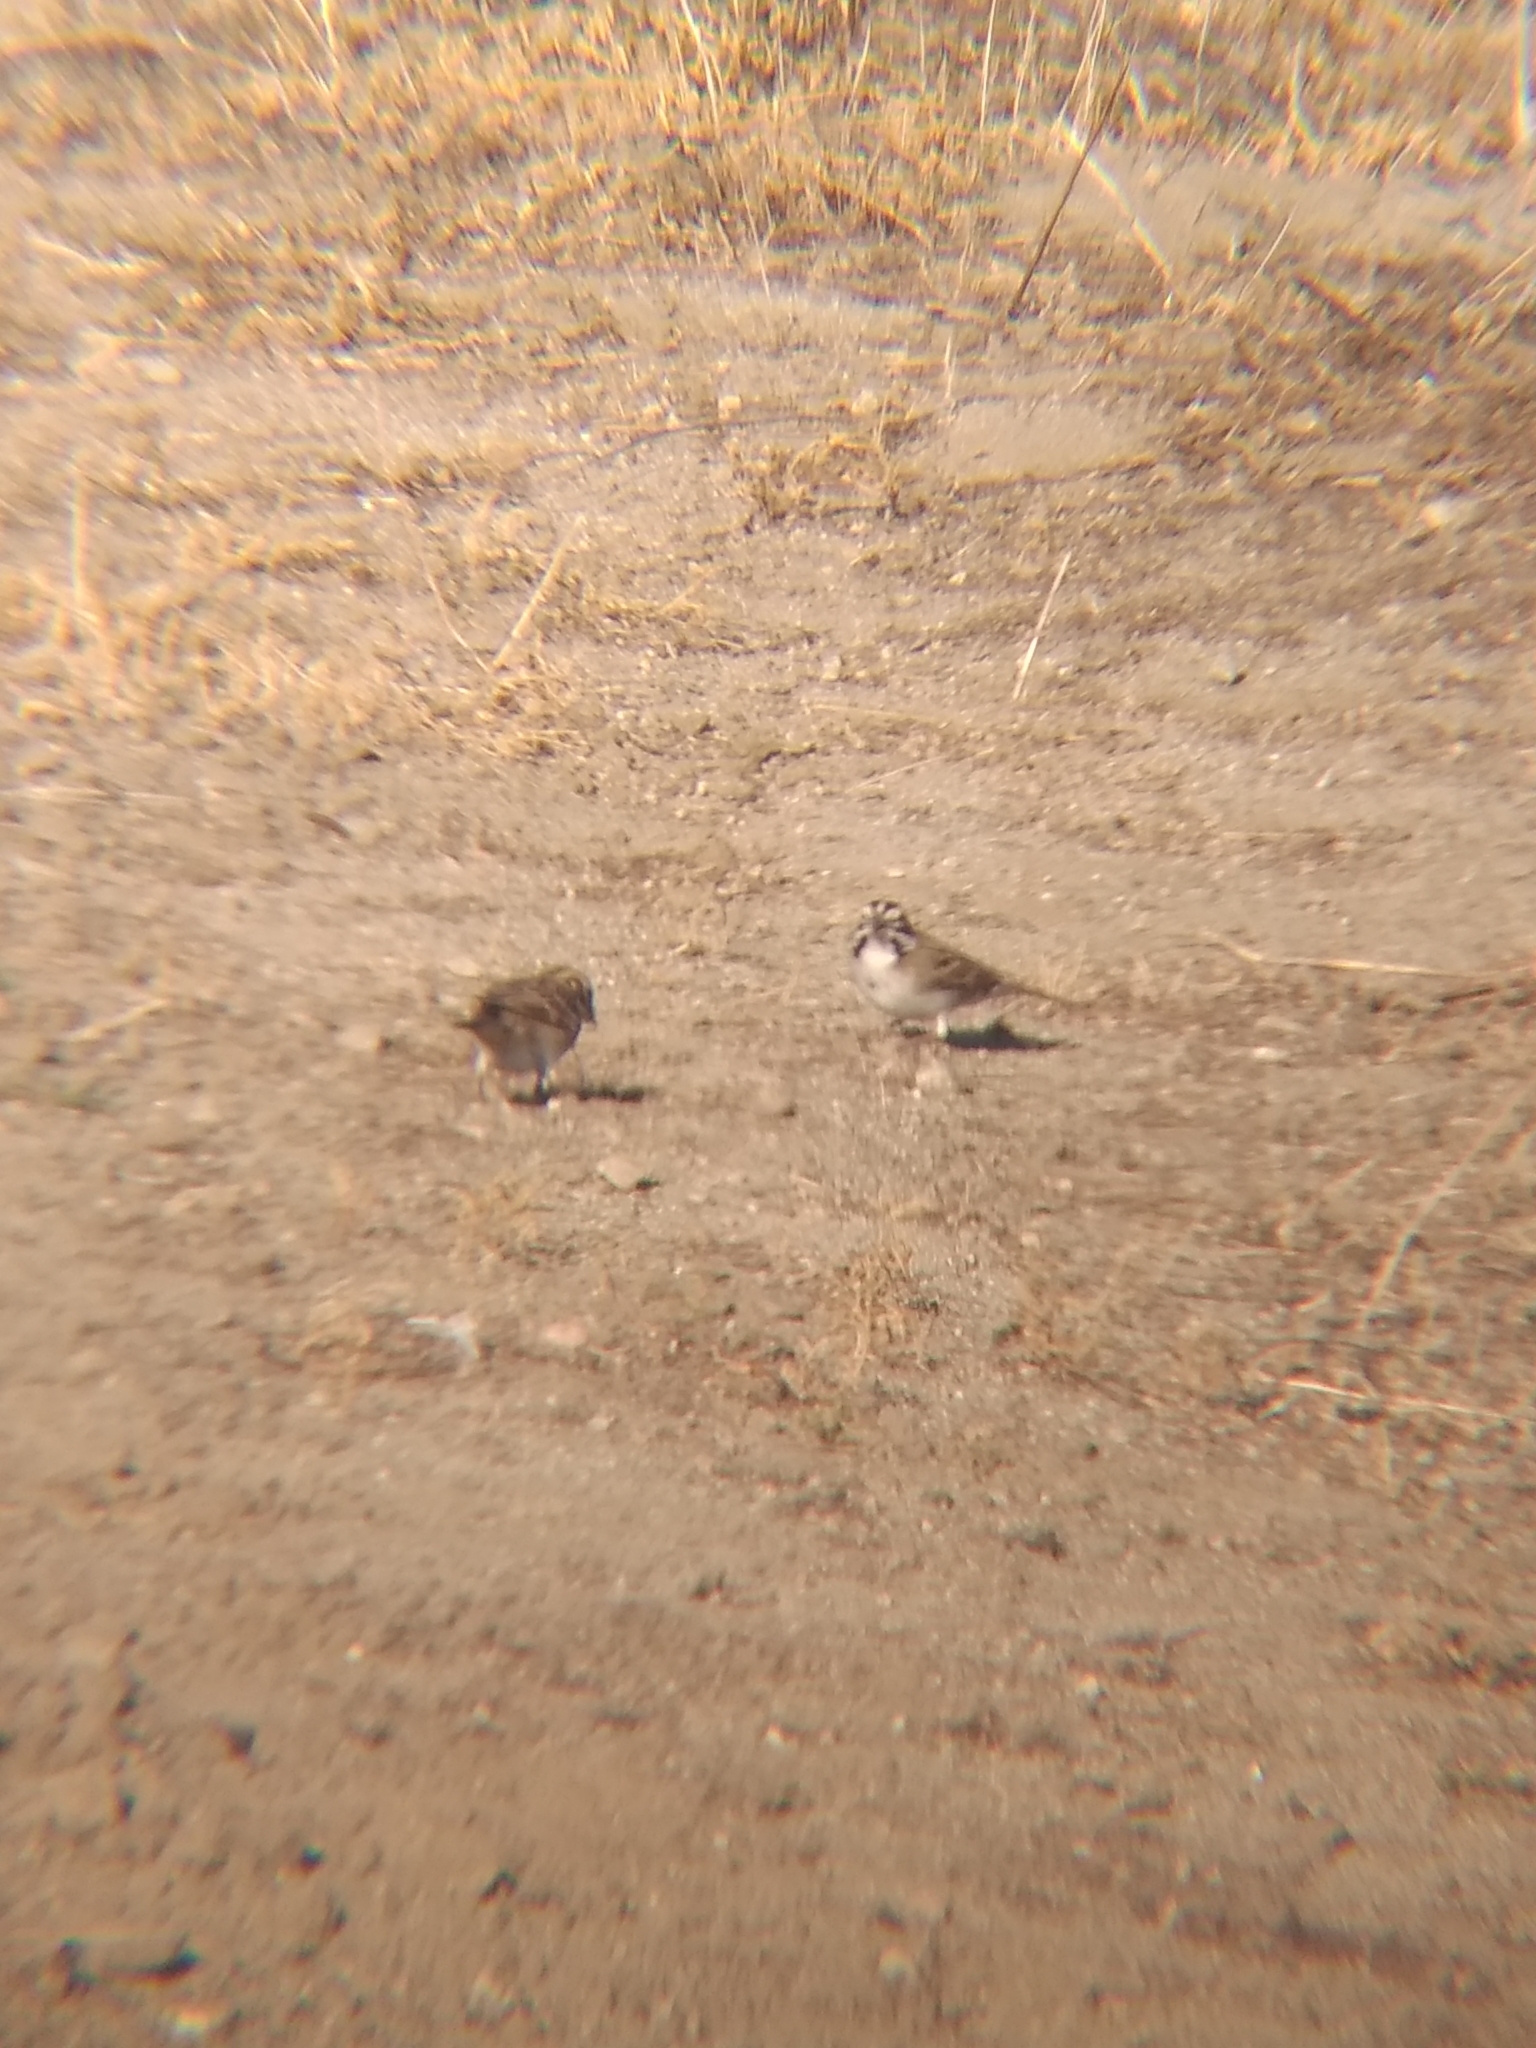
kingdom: Animalia
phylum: Chordata
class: Aves
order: Passeriformes
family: Passerellidae
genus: Chondestes
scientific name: Chondestes grammacus
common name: Lark sparrow
